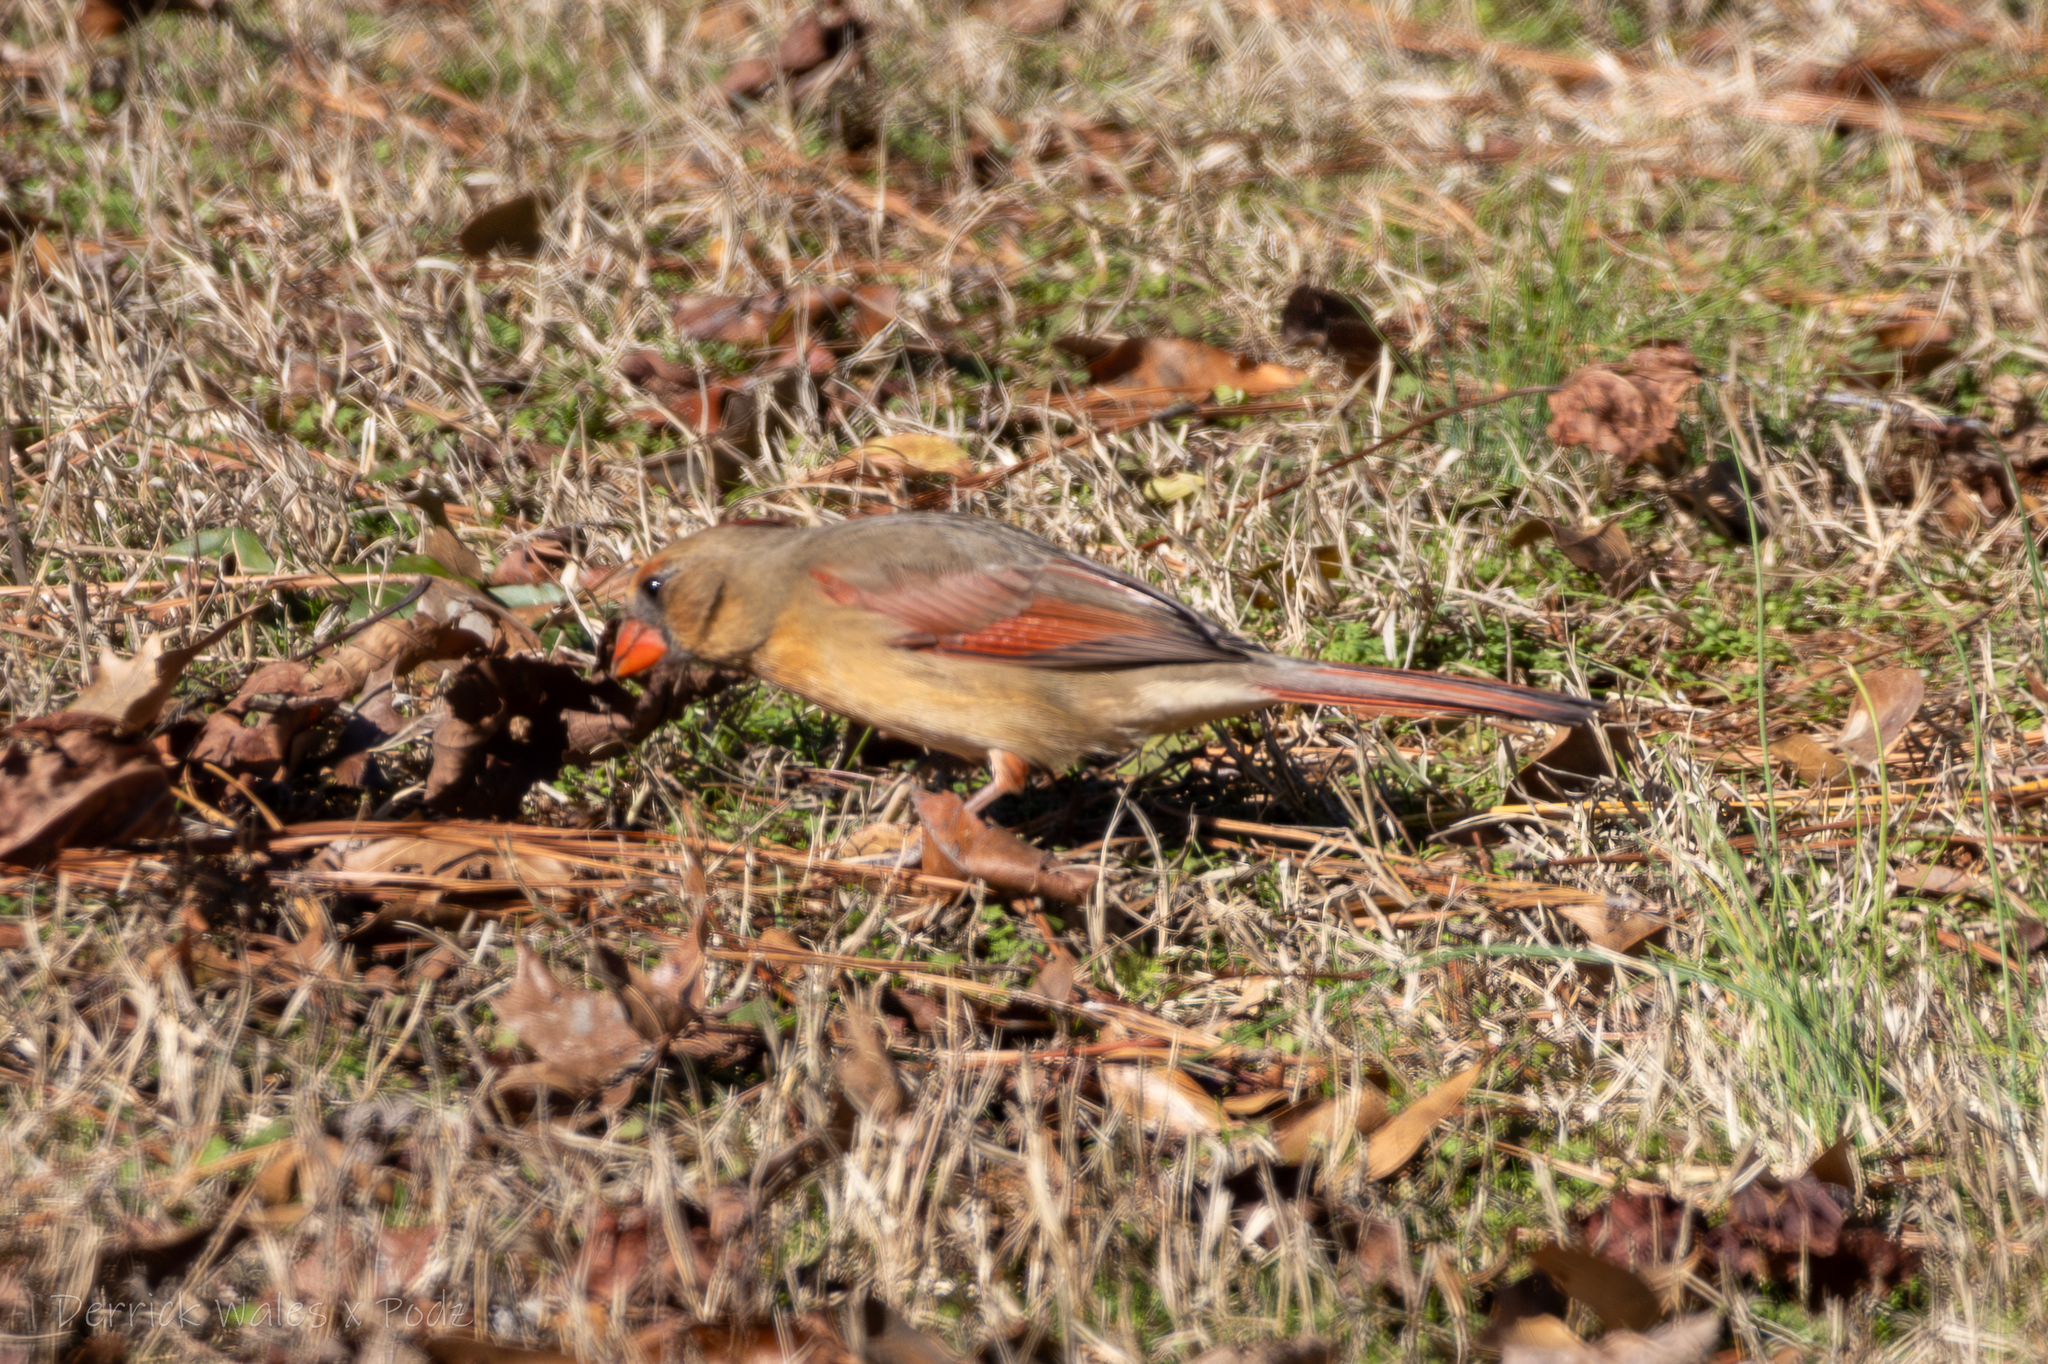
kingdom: Animalia
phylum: Chordata
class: Aves
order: Passeriformes
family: Cardinalidae
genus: Cardinalis
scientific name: Cardinalis cardinalis
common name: Northern cardinal
